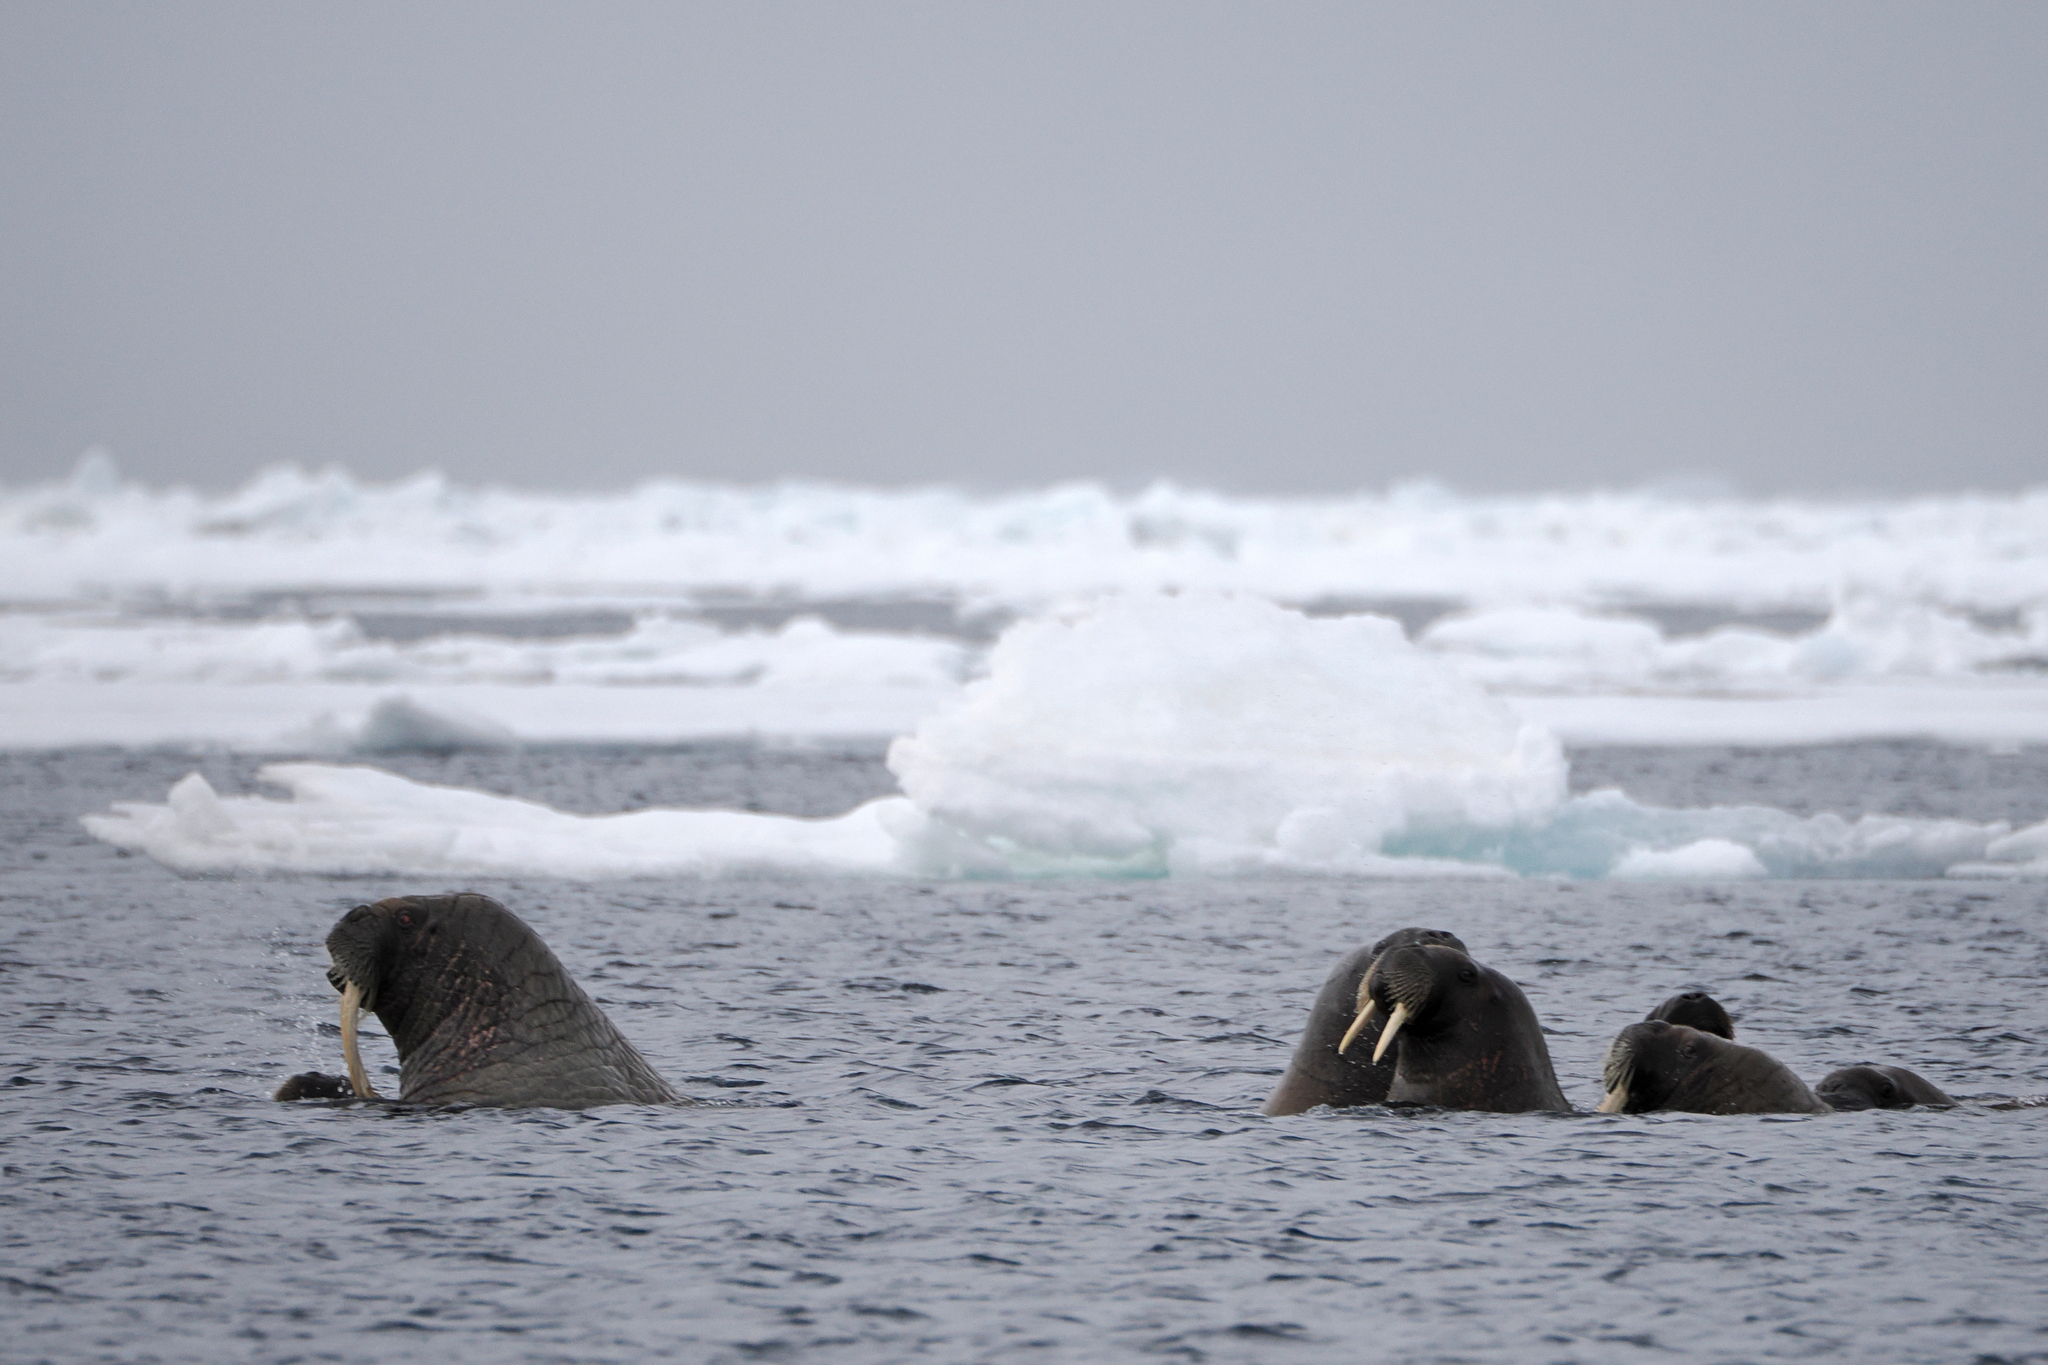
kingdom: Animalia
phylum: Chordata
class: Mammalia
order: Carnivora
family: Odobenidae
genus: Odobenus
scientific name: Odobenus rosmarus
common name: Walrus
